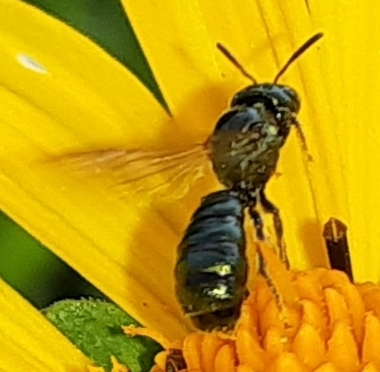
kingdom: Animalia
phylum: Arthropoda
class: Insecta
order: Hymenoptera
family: Apidae
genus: Zadontomerus
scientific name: Zadontomerus
